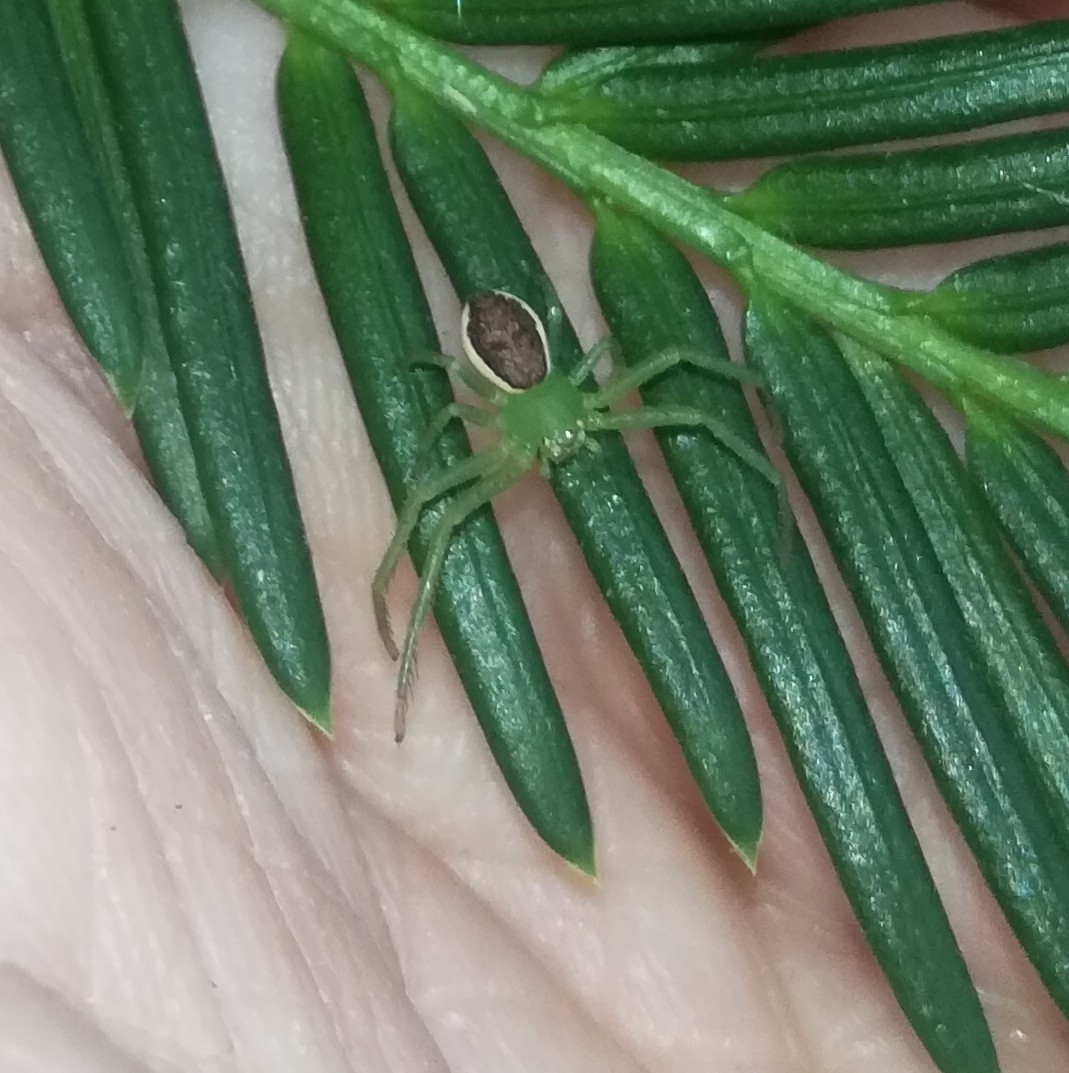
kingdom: Animalia
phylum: Arthropoda
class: Arachnida
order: Araneae
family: Thomisidae
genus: Diaea
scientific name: Diaea dorsata
